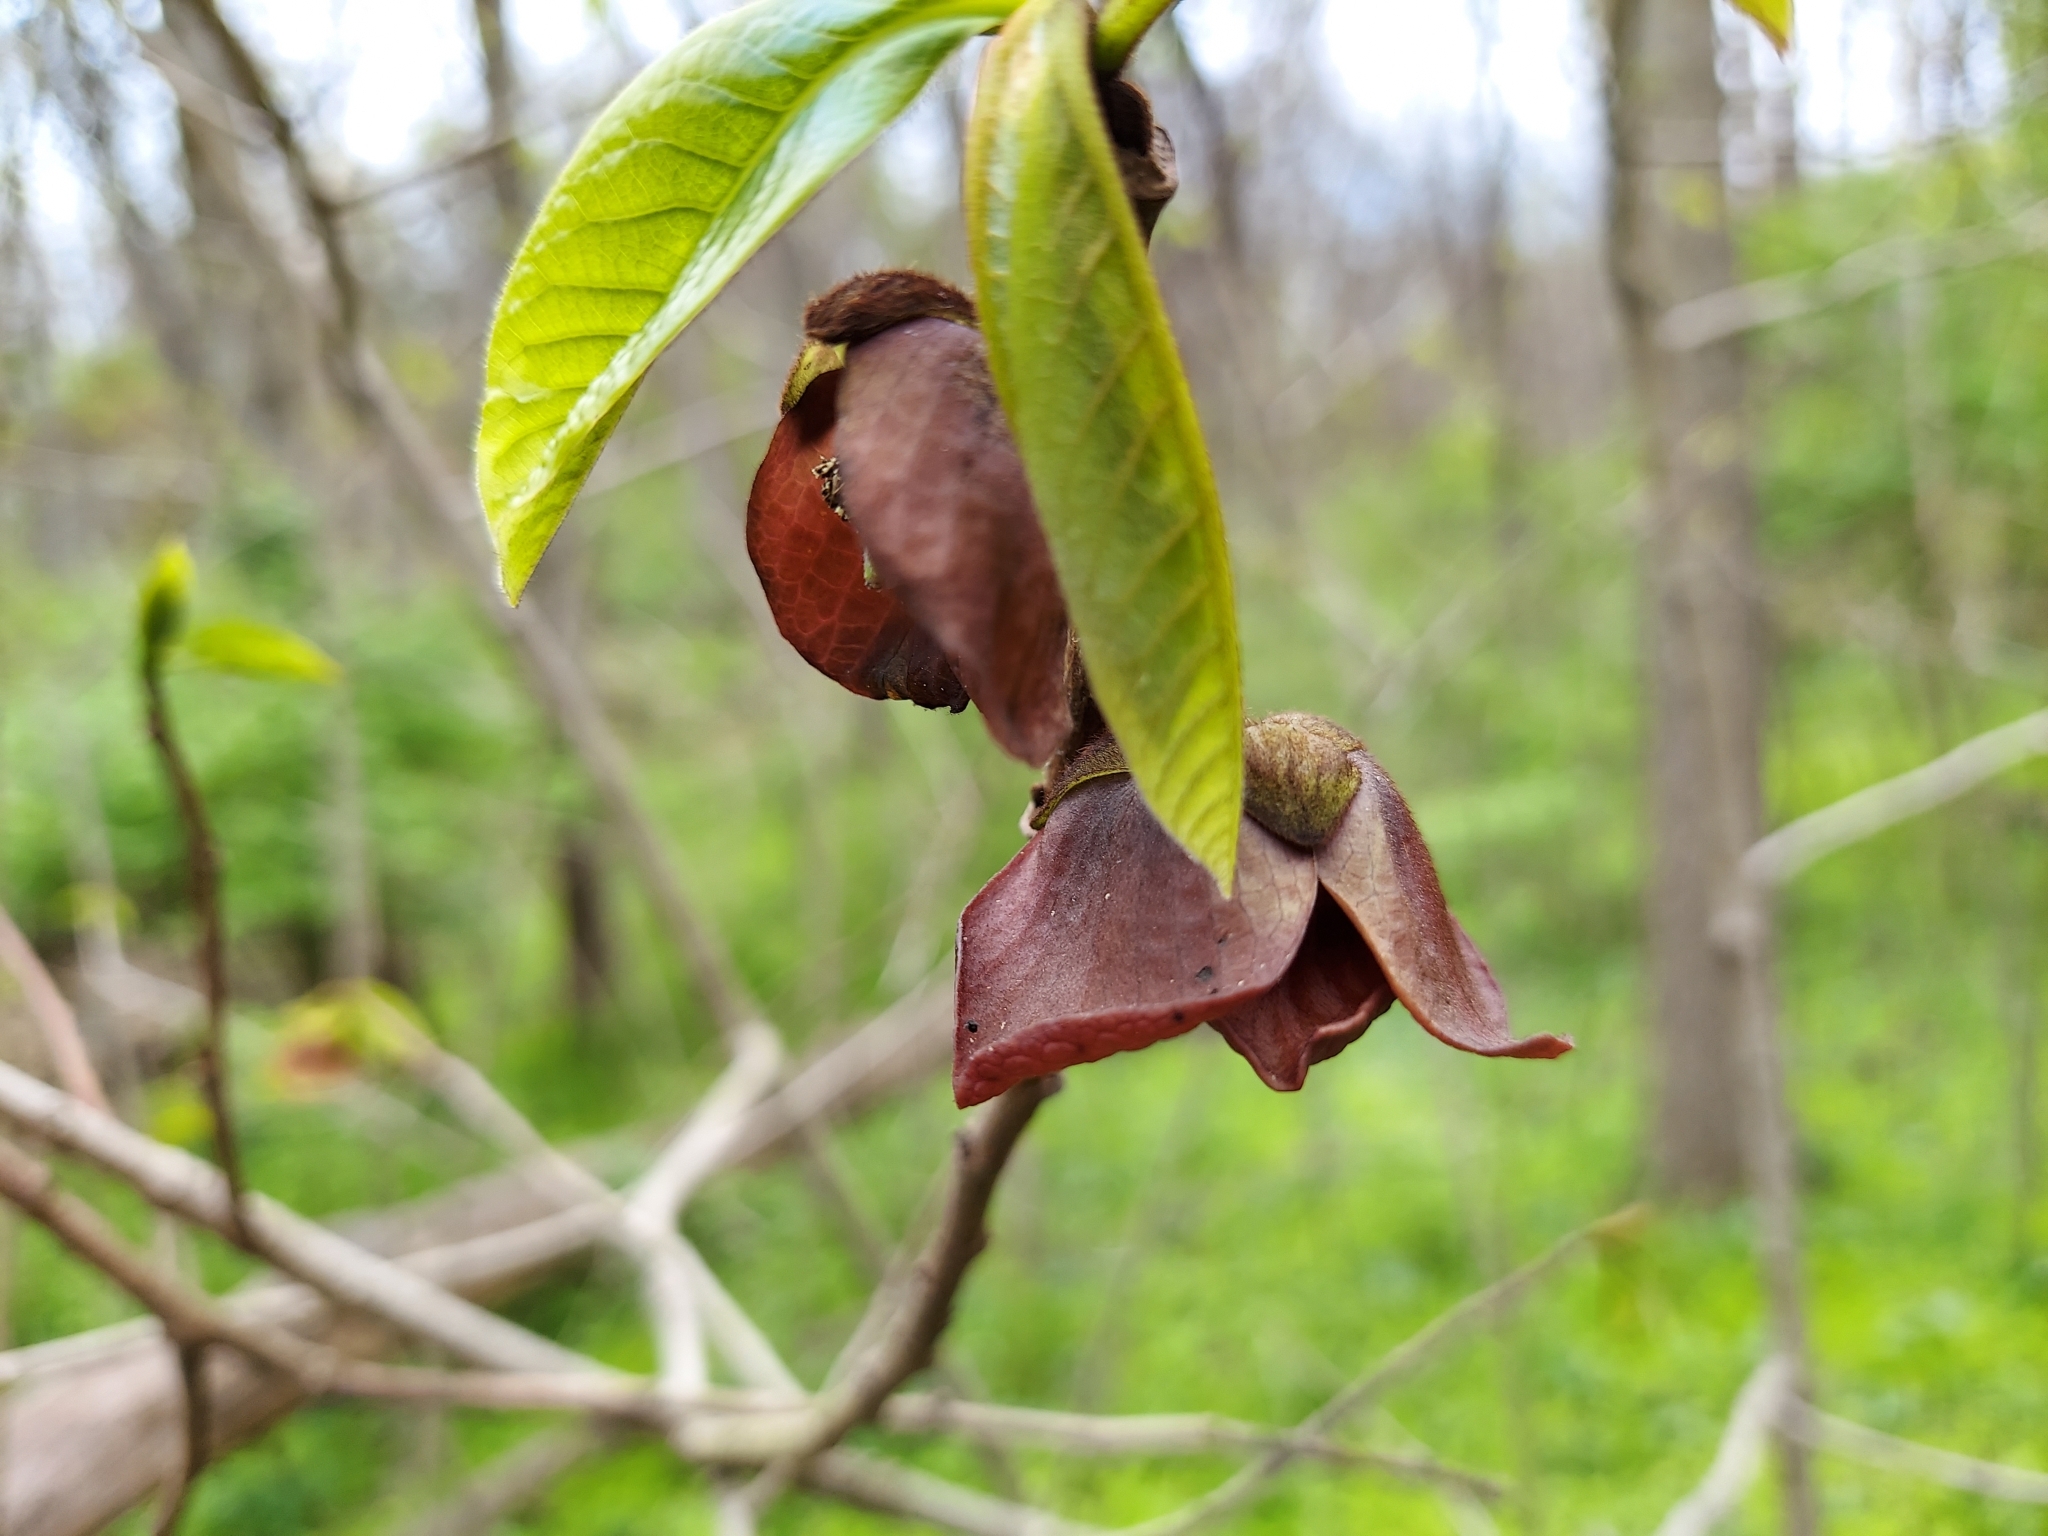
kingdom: Plantae
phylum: Tracheophyta
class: Magnoliopsida
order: Magnoliales
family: Annonaceae
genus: Asimina
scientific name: Asimina triloba
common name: Dog-banana
